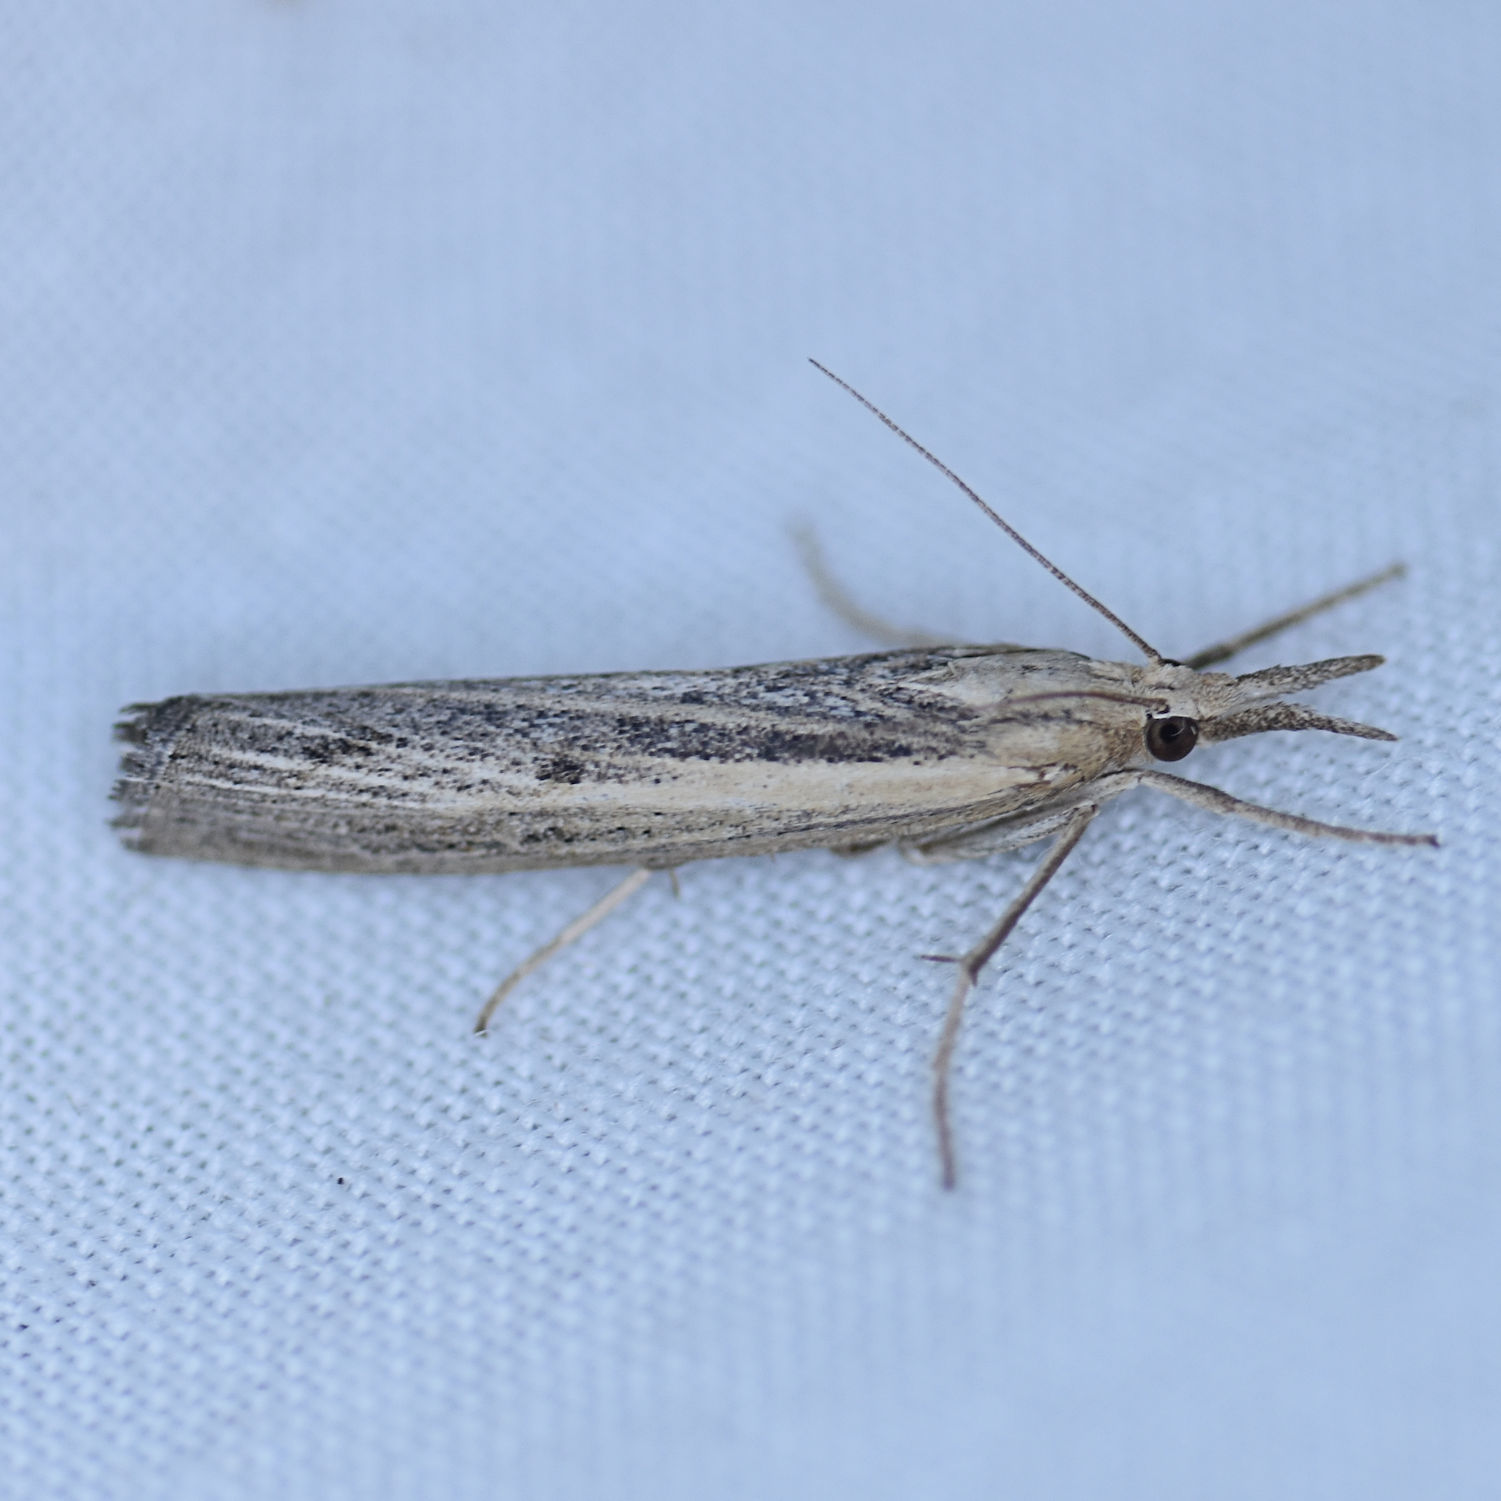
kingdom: Animalia
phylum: Arthropoda
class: Insecta
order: Lepidoptera
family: Crambidae
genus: Pediasia
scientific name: Pediasia trisecta
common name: Sod webworm moth
